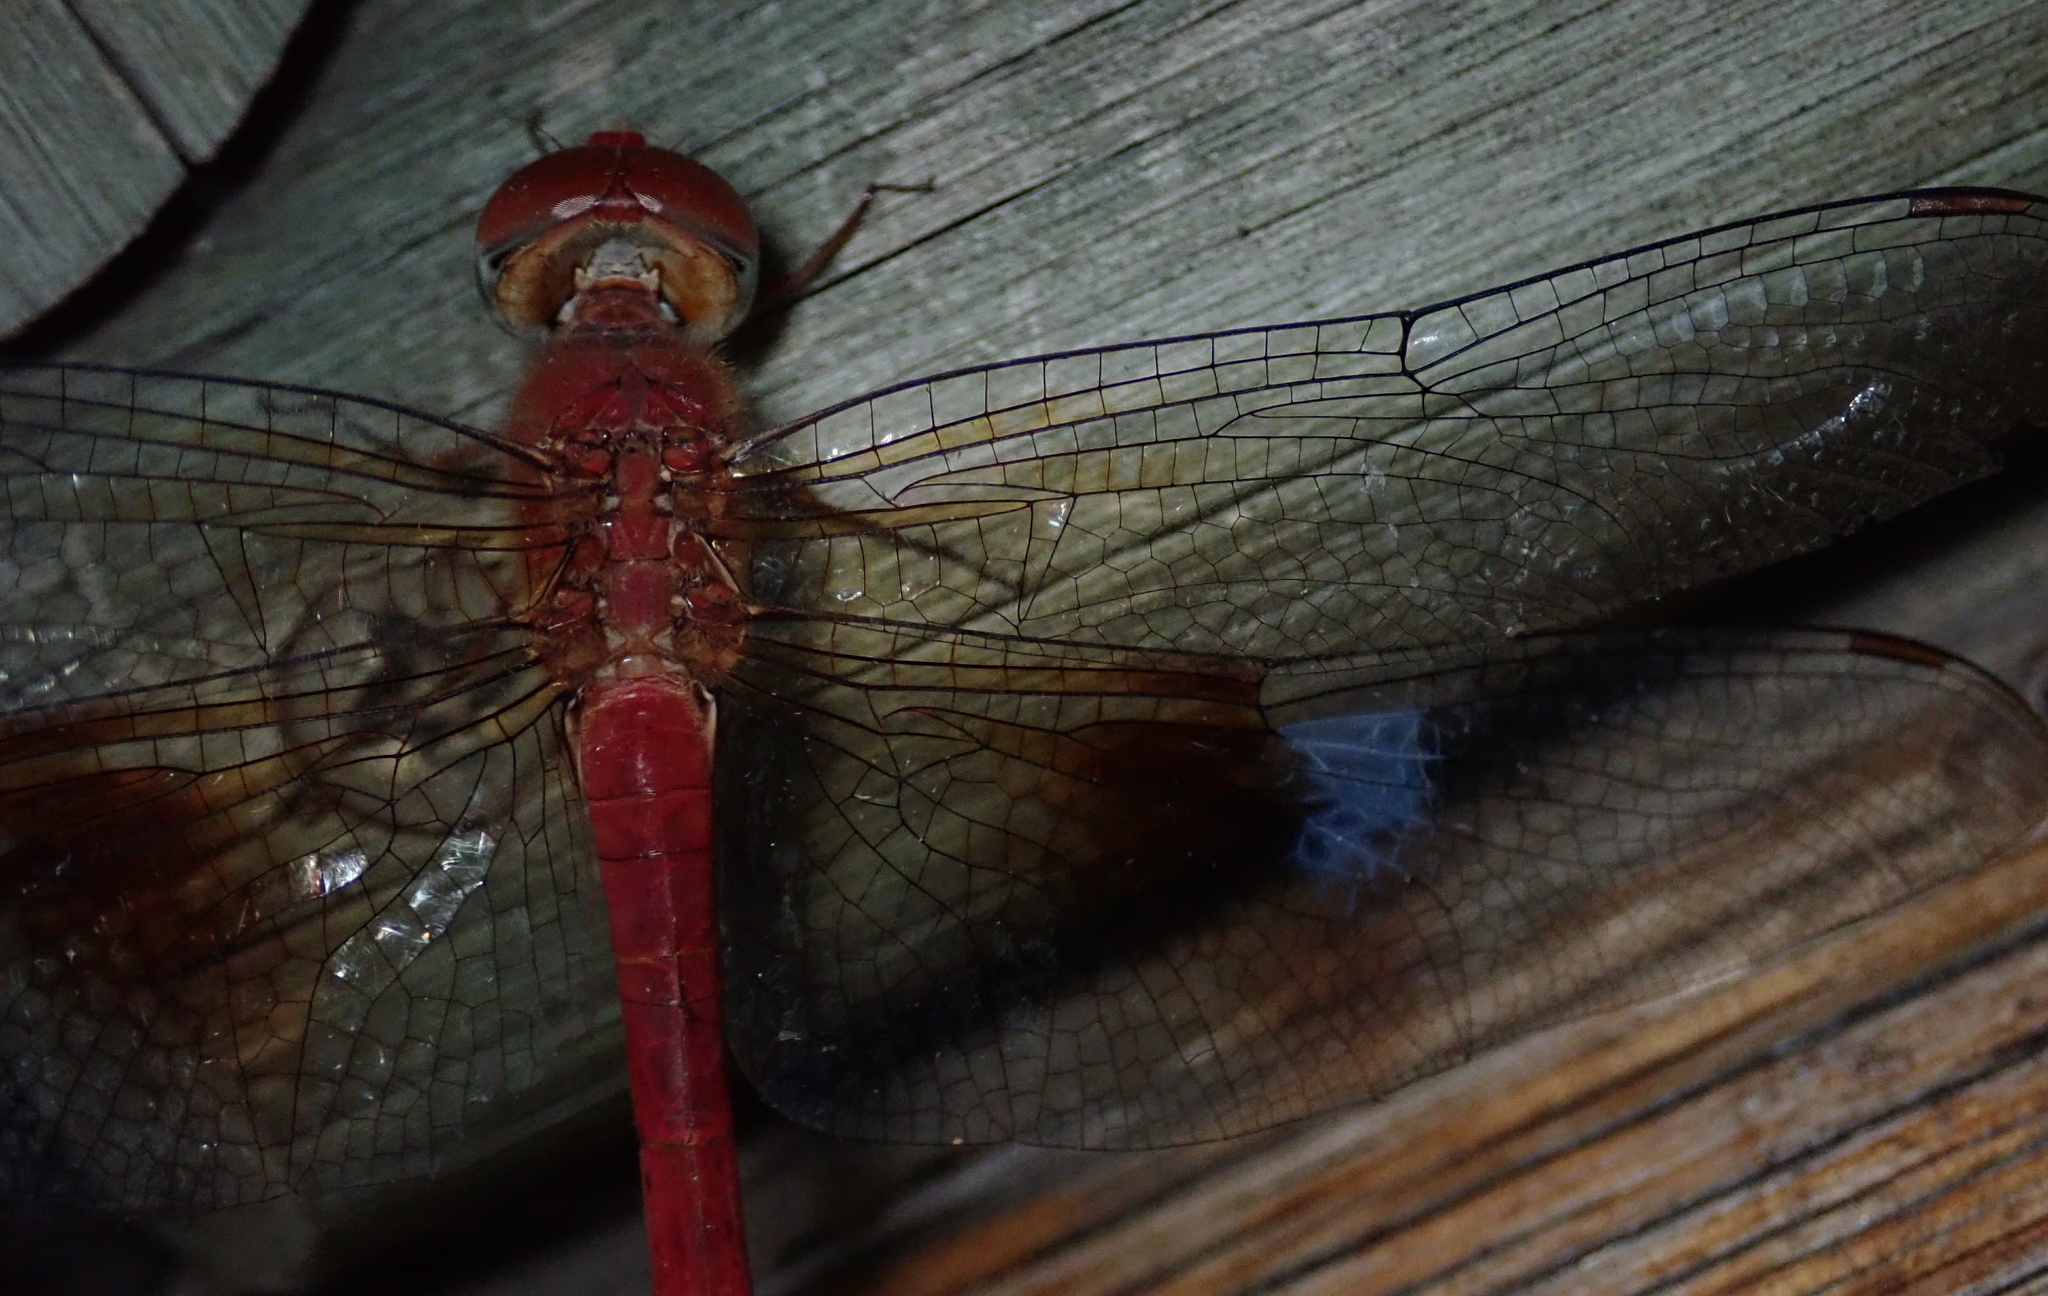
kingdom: Animalia
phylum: Arthropoda
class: Insecta
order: Odonata
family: Libellulidae
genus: Tholymis
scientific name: Tholymis tillarga
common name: Coral-tailed cloud wing
